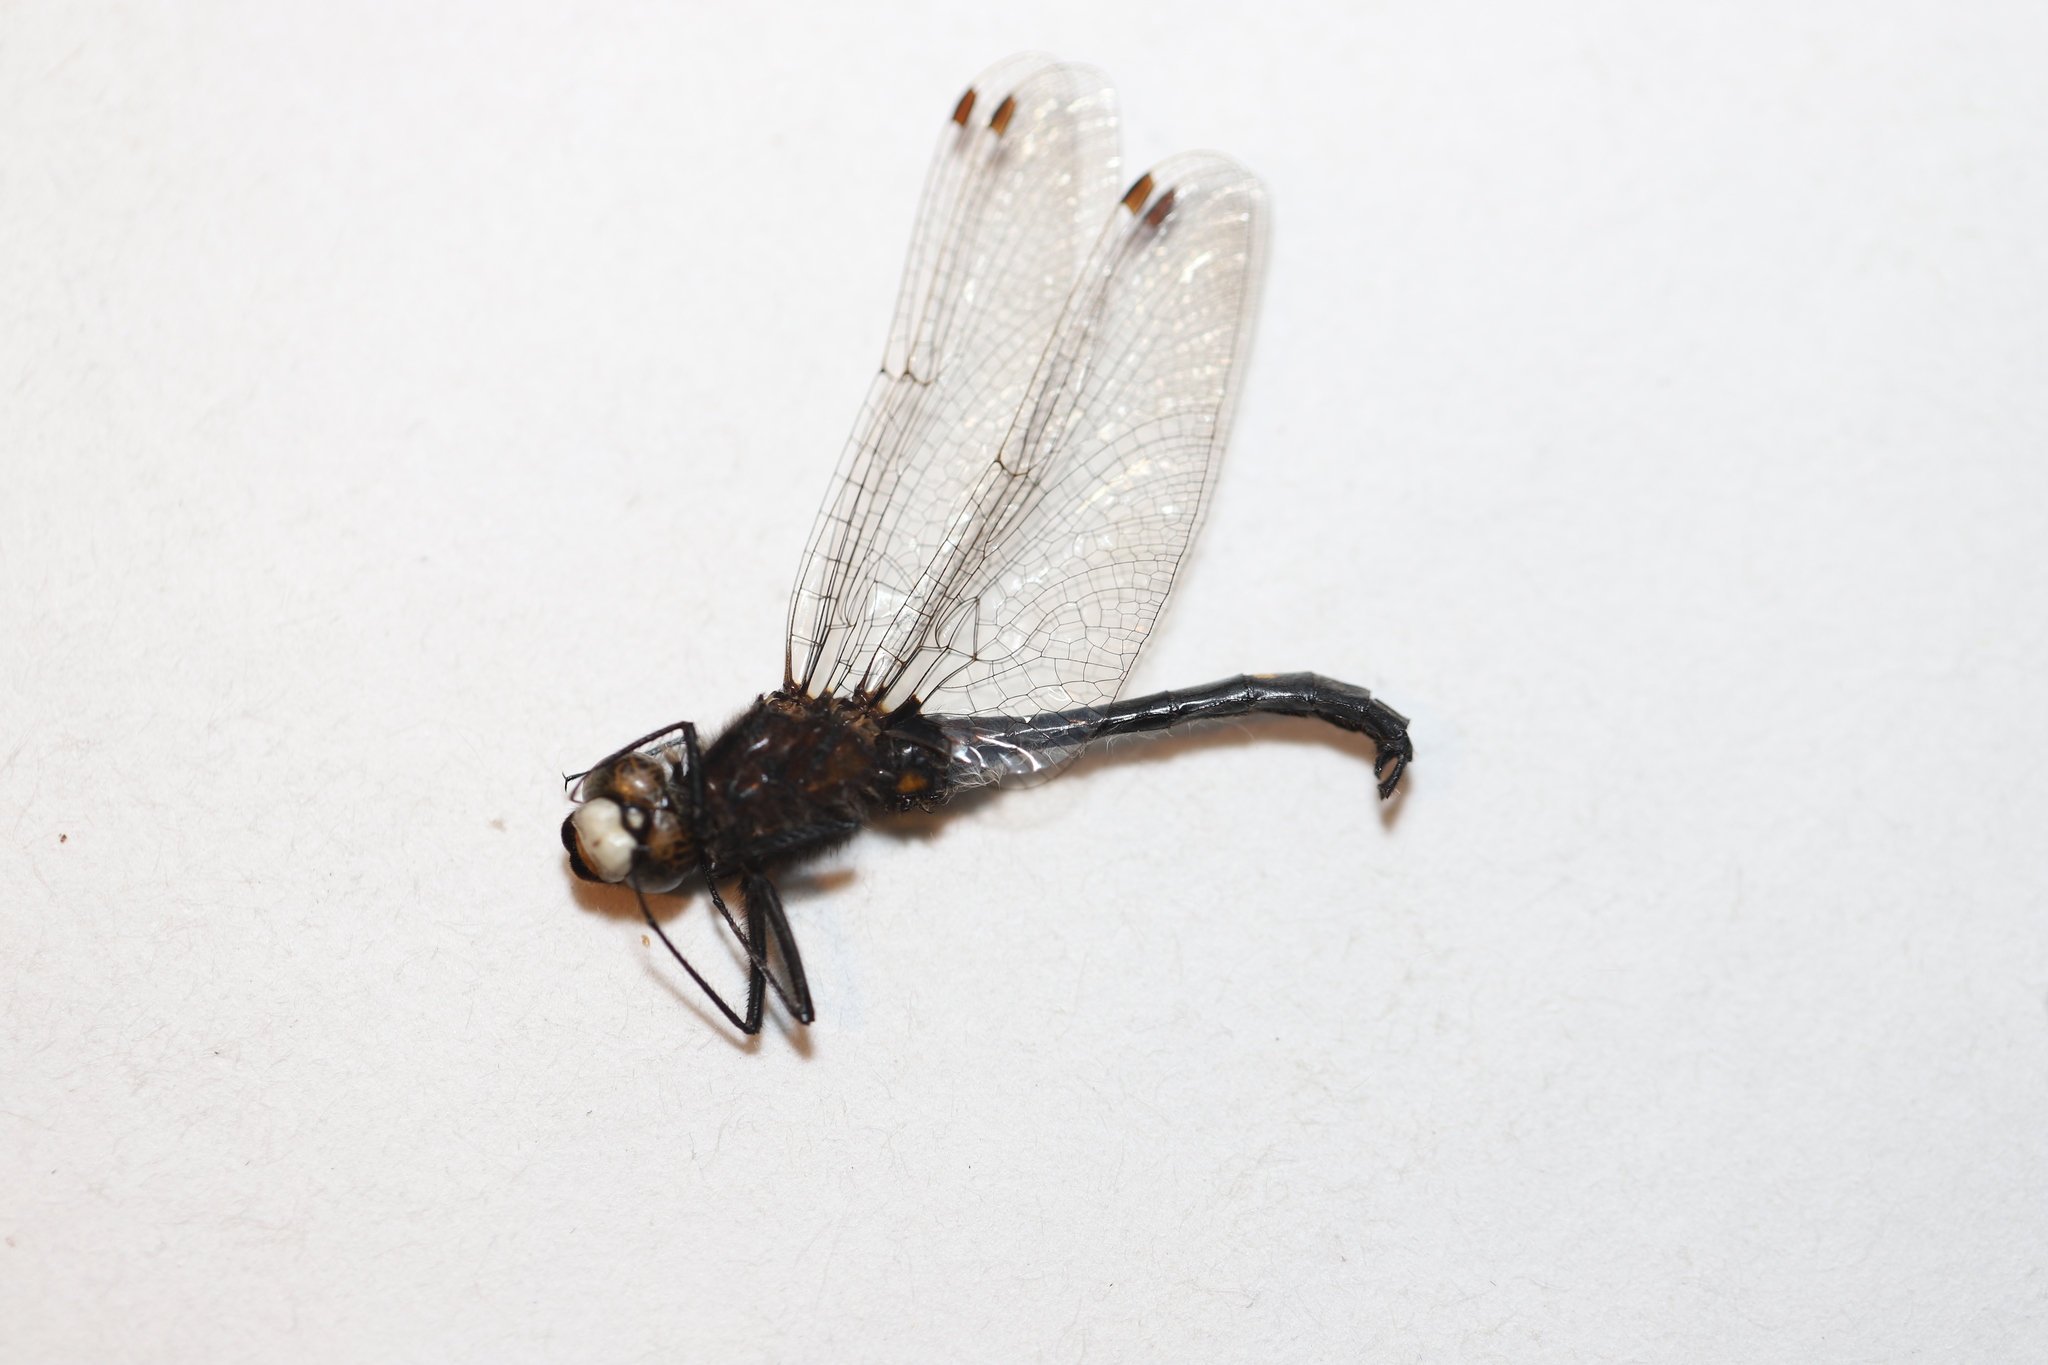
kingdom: Animalia
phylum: Arthropoda
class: Insecta
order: Odonata
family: Libellulidae
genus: Leucorrhinia
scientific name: Leucorrhinia intacta
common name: Dot-tailed whiteface
